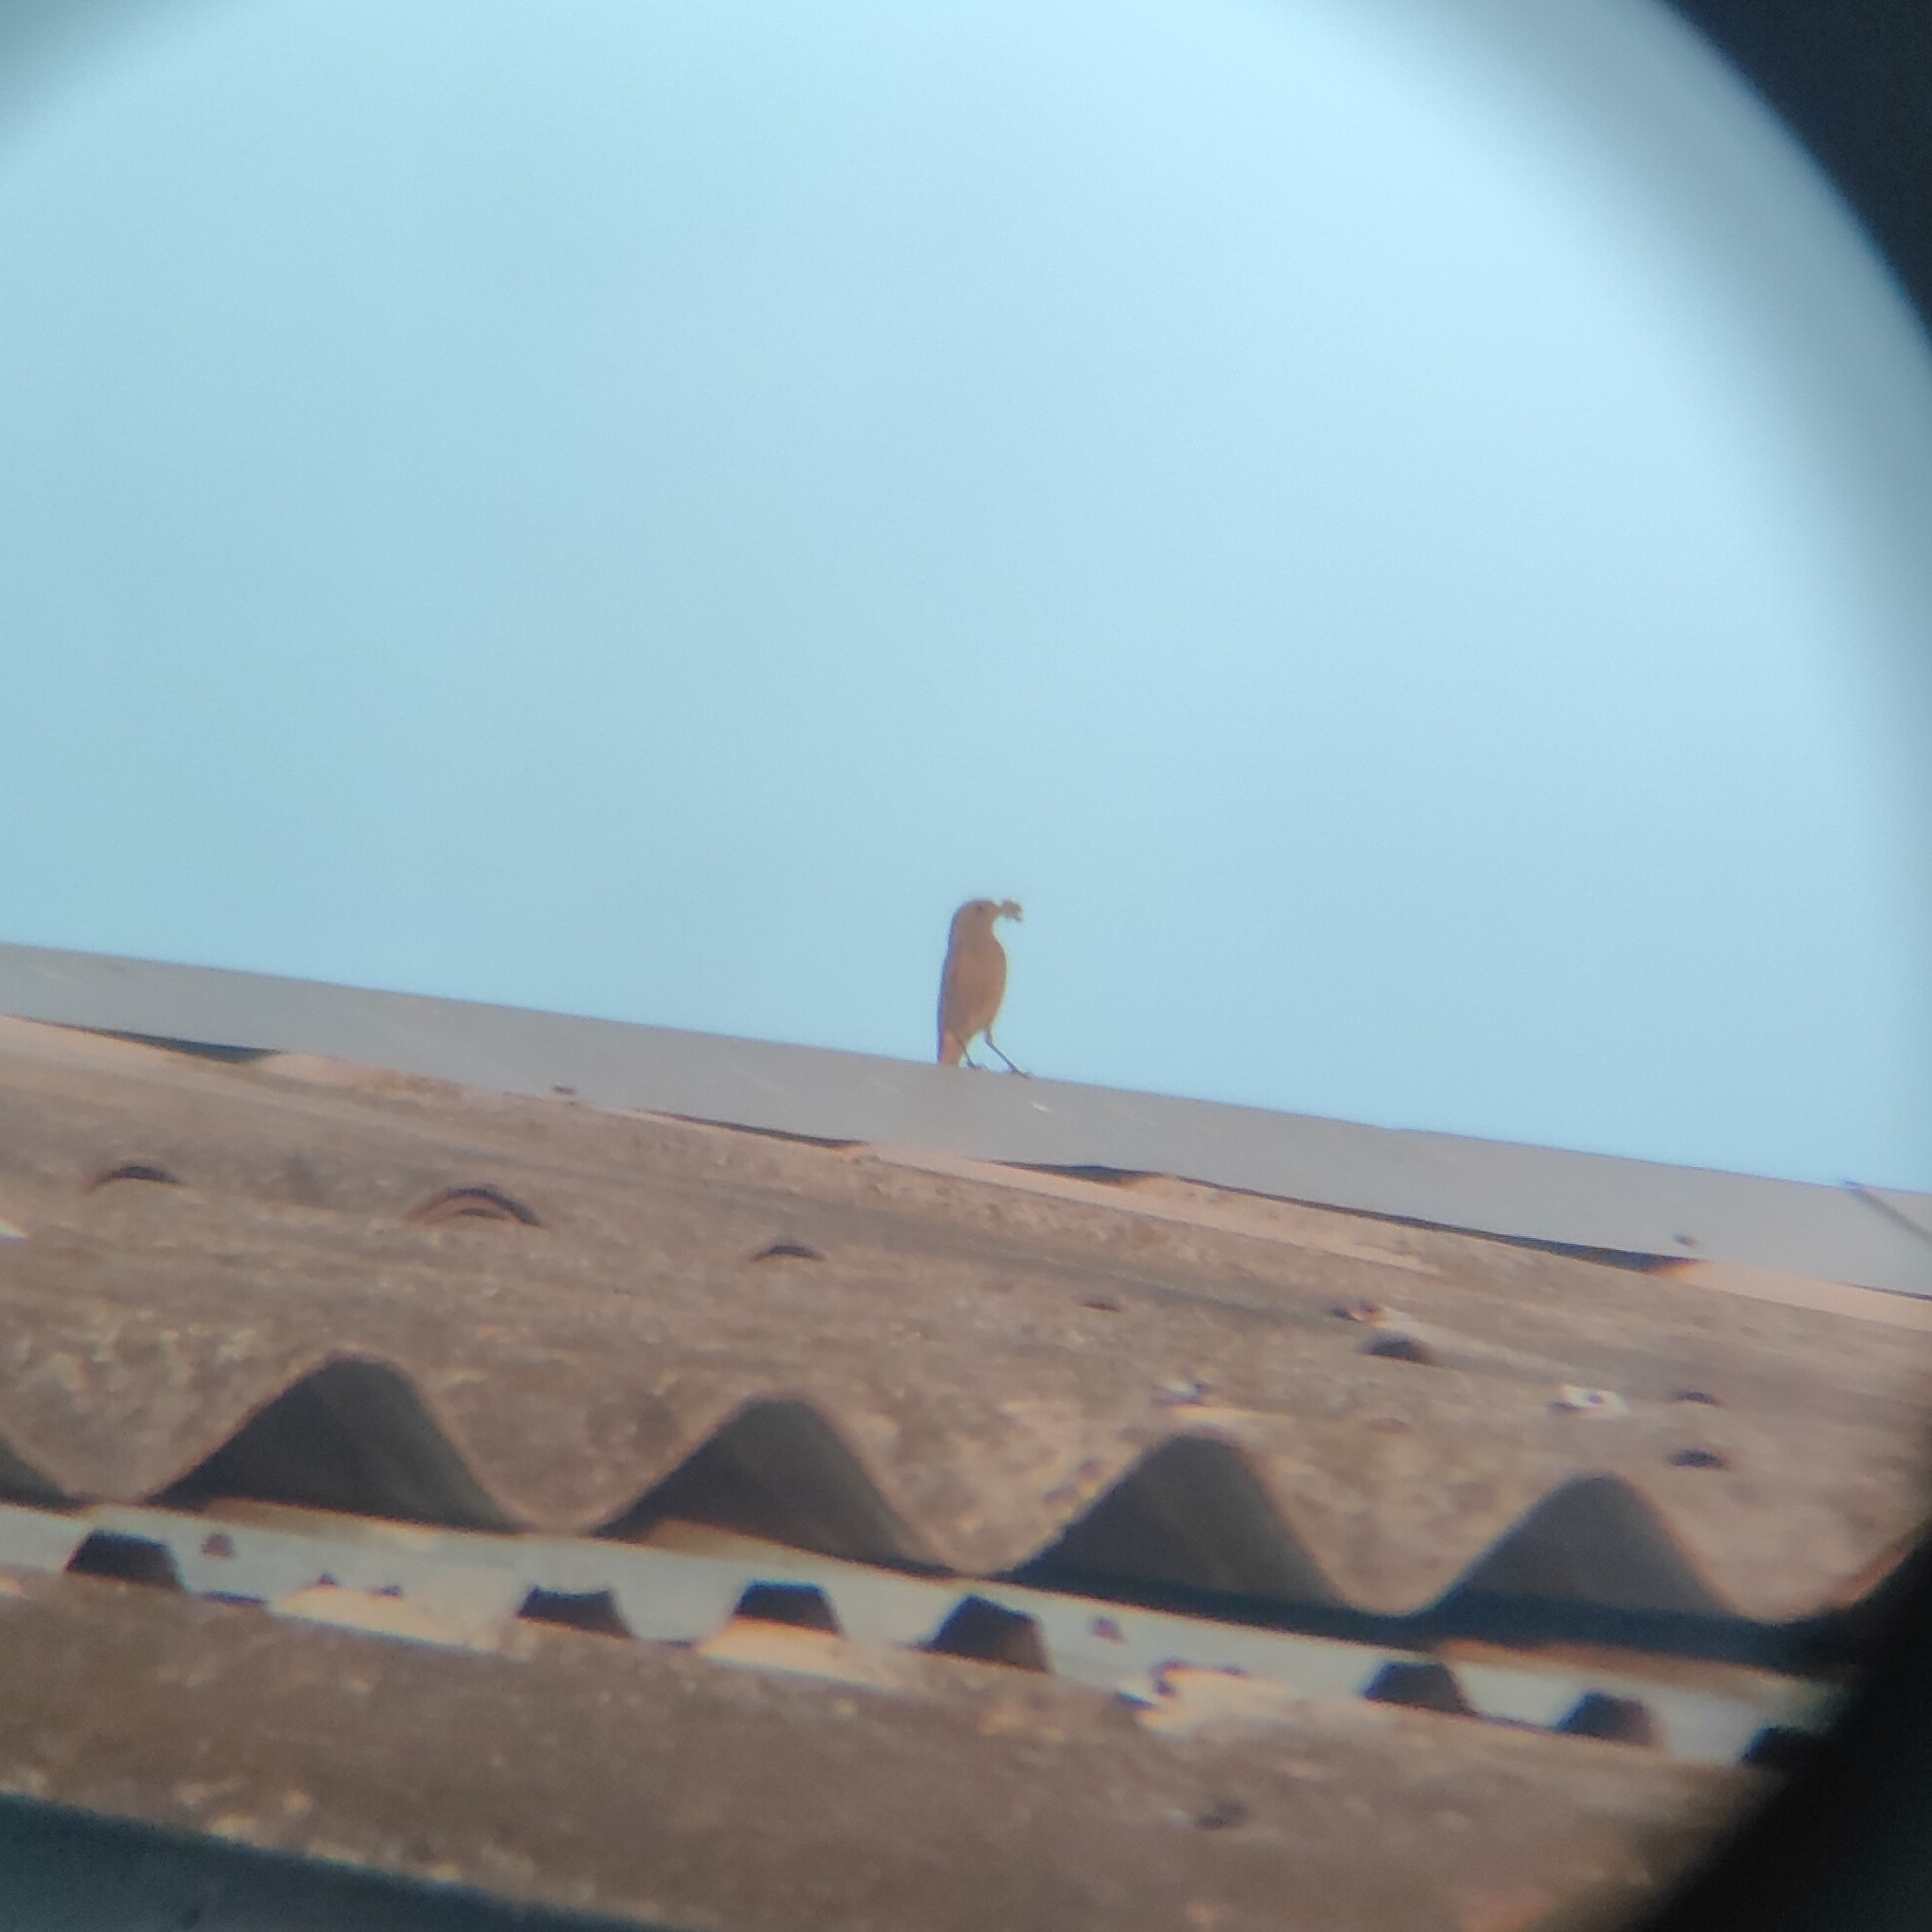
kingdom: Animalia
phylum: Chordata
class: Aves
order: Passeriformes
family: Muscicapidae
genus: Phoenicurus
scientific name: Phoenicurus ochruros
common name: Black redstart
